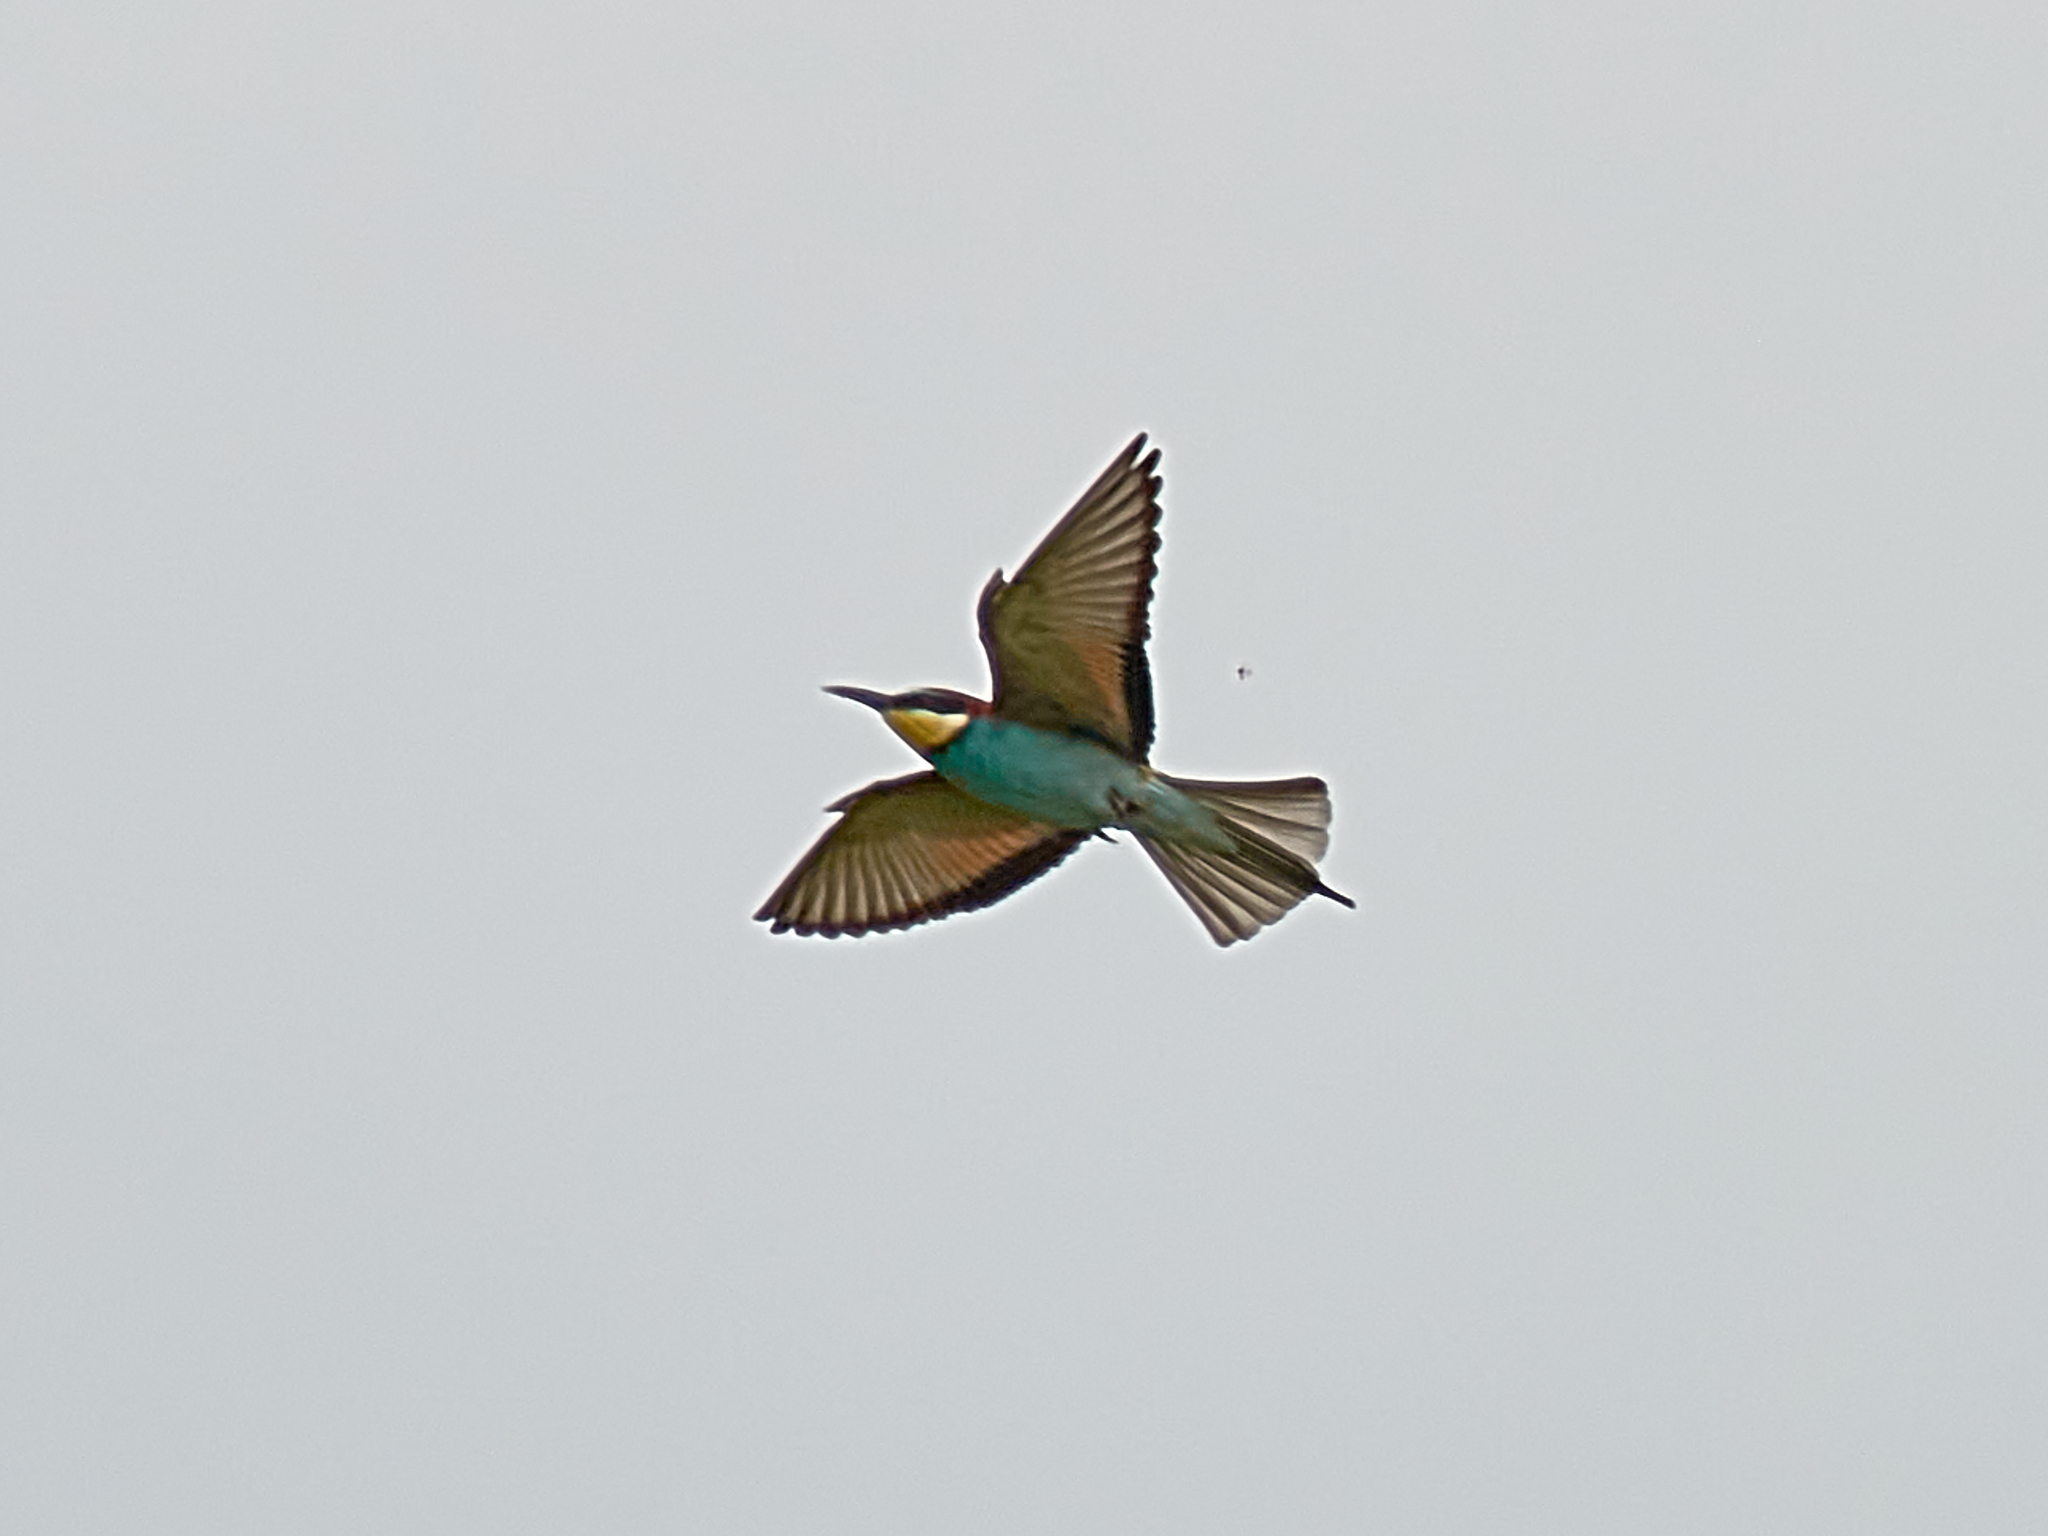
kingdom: Animalia
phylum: Chordata
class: Aves
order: Coraciiformes
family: Meropidae
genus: Merops
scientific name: Merops apiaster
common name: European bee-eater
